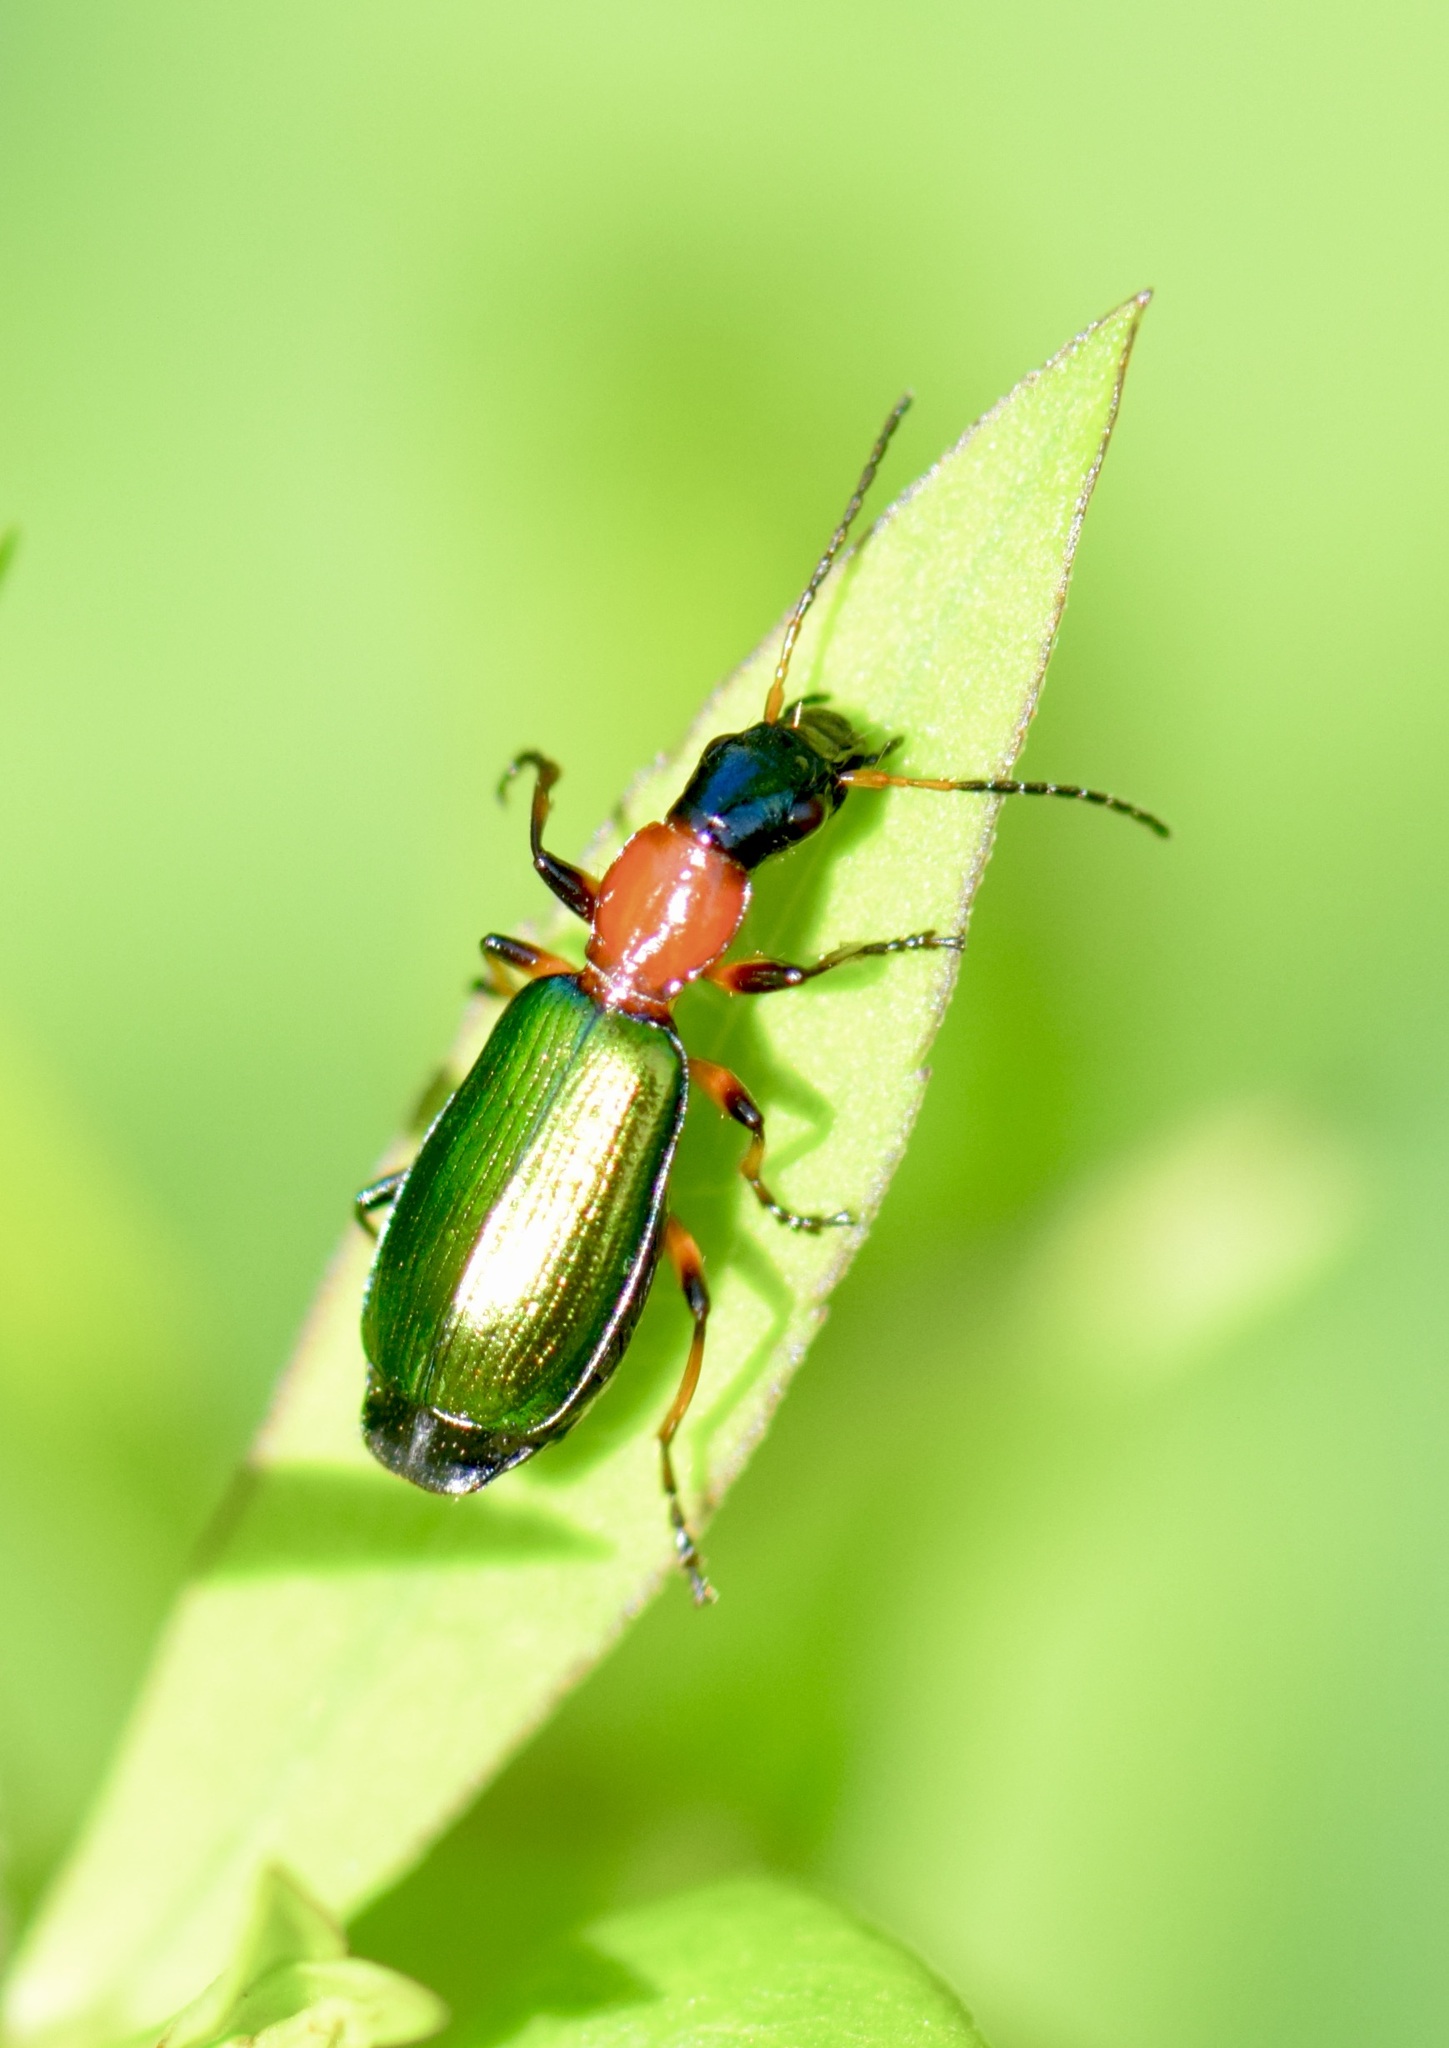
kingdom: Animalia
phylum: Arthropoda
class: Insecta
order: Coleoptera
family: Carabidae
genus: Calleida
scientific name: Calleida punctata
